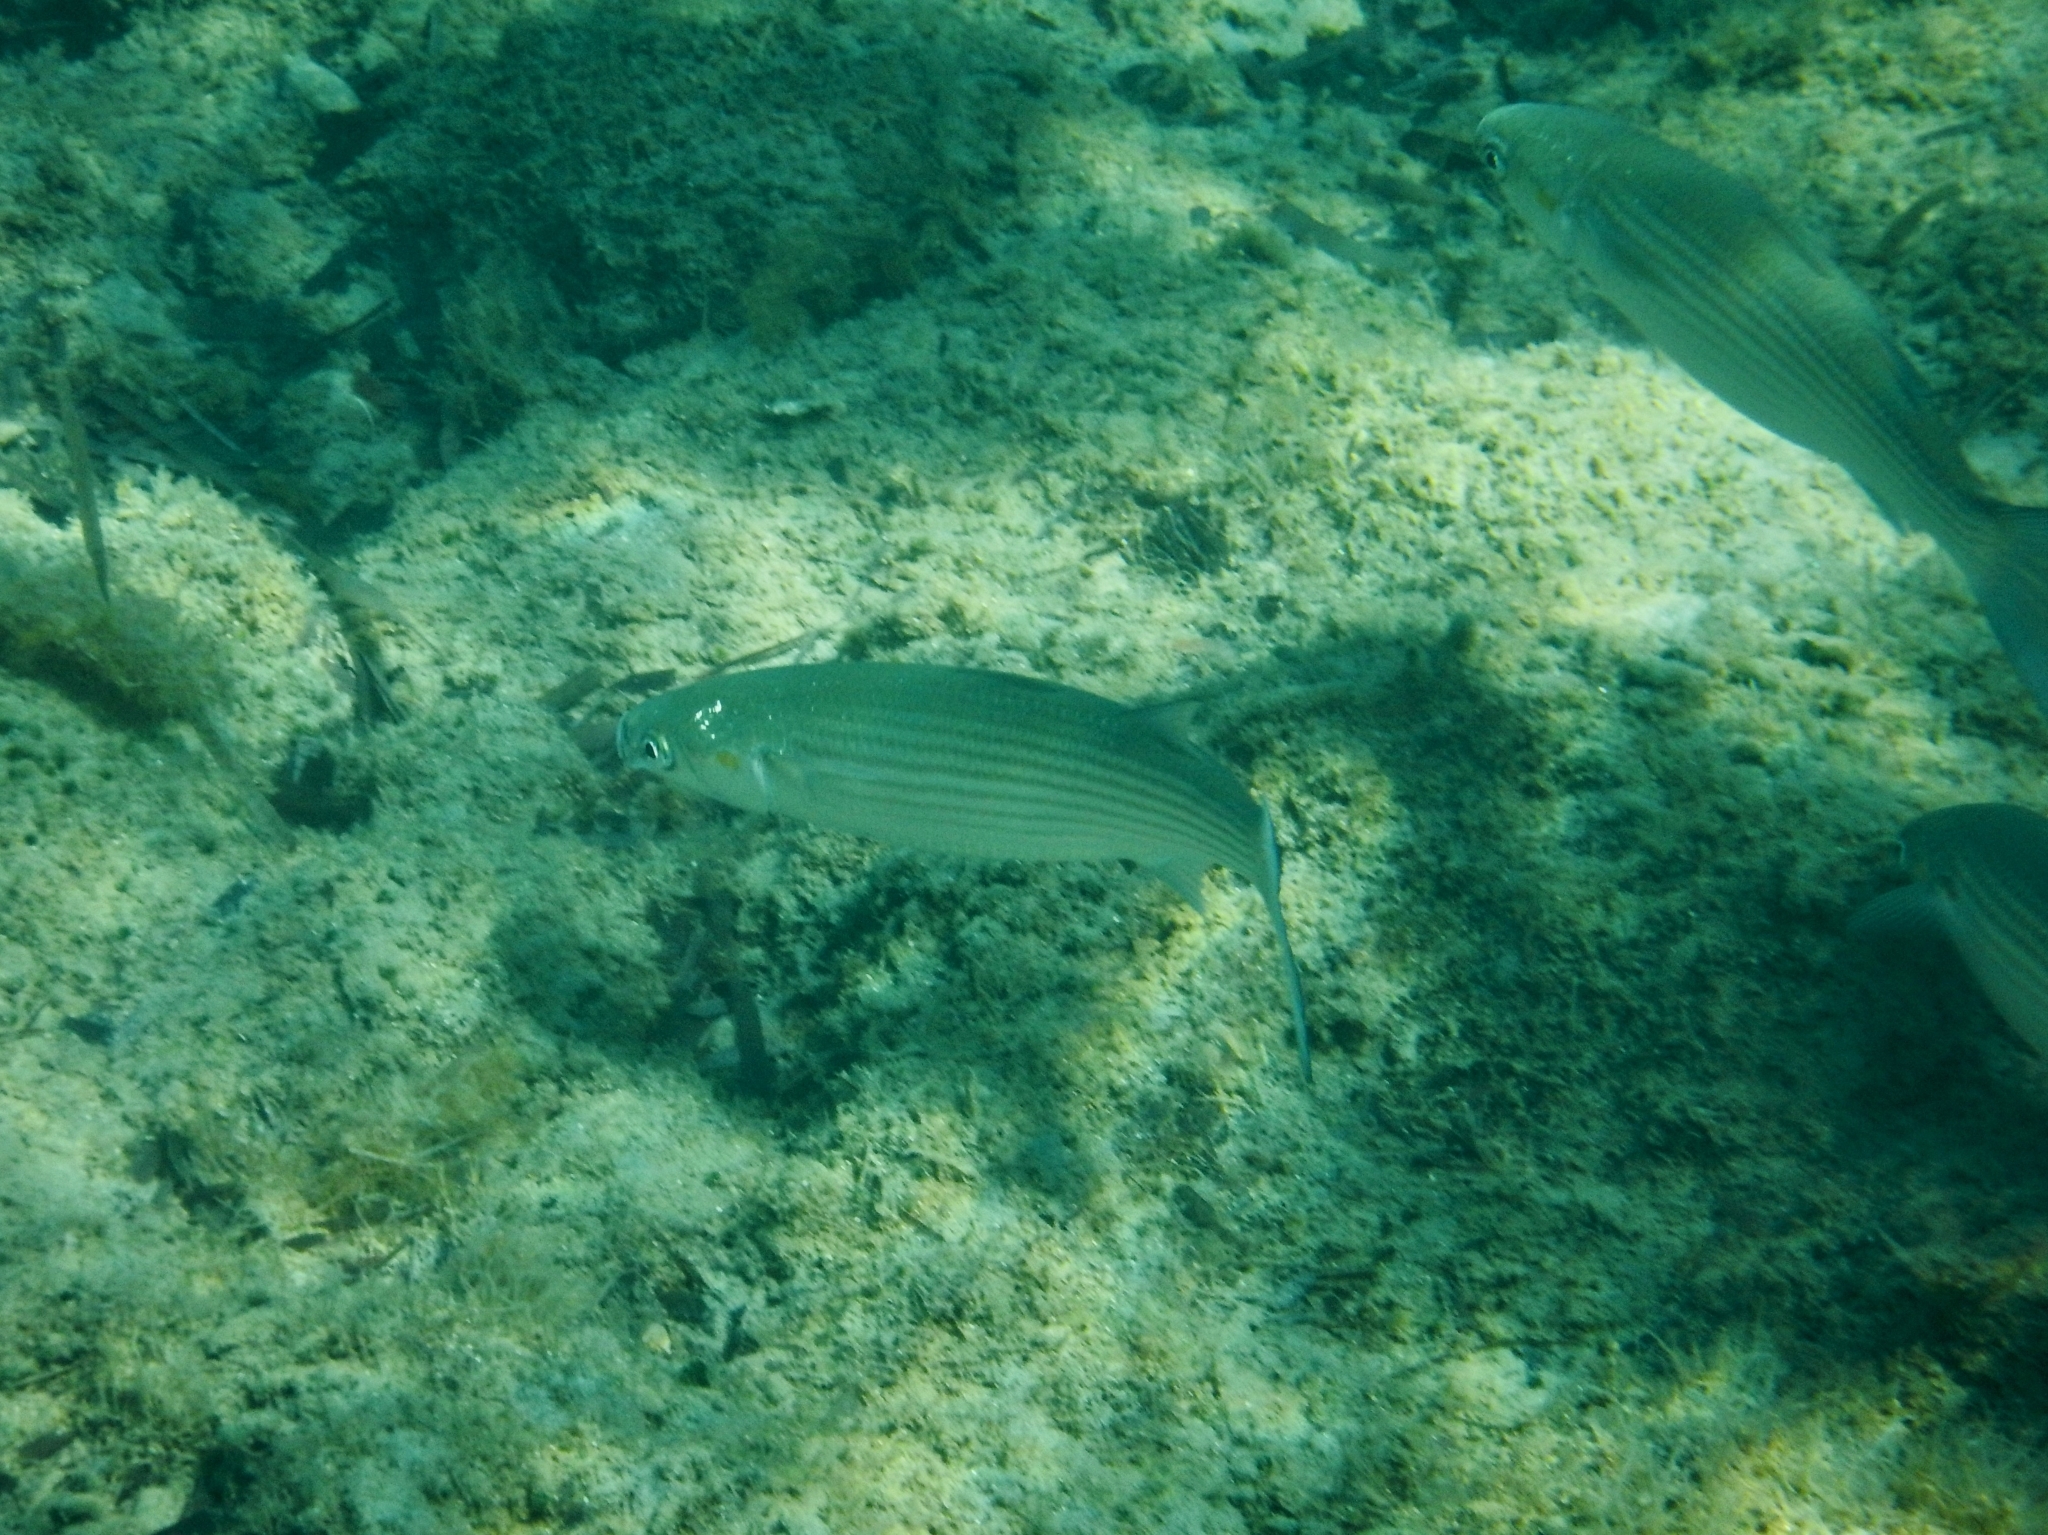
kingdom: Animalia
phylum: Chordata
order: Mugiliformes
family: Mugilidae
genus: Chelon
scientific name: Chelon
